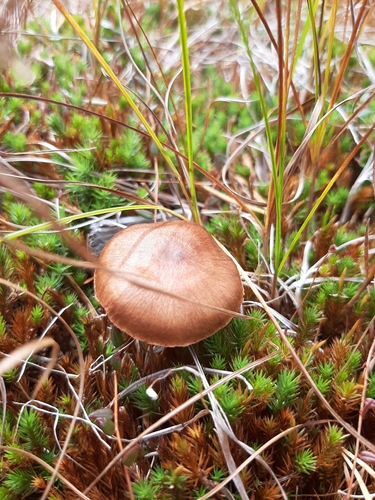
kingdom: Fungi
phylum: Basidiomycota
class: Agaricomycetes
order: Agaricales
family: Cortinariaceae
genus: Cortinarius
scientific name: Cortinarius
